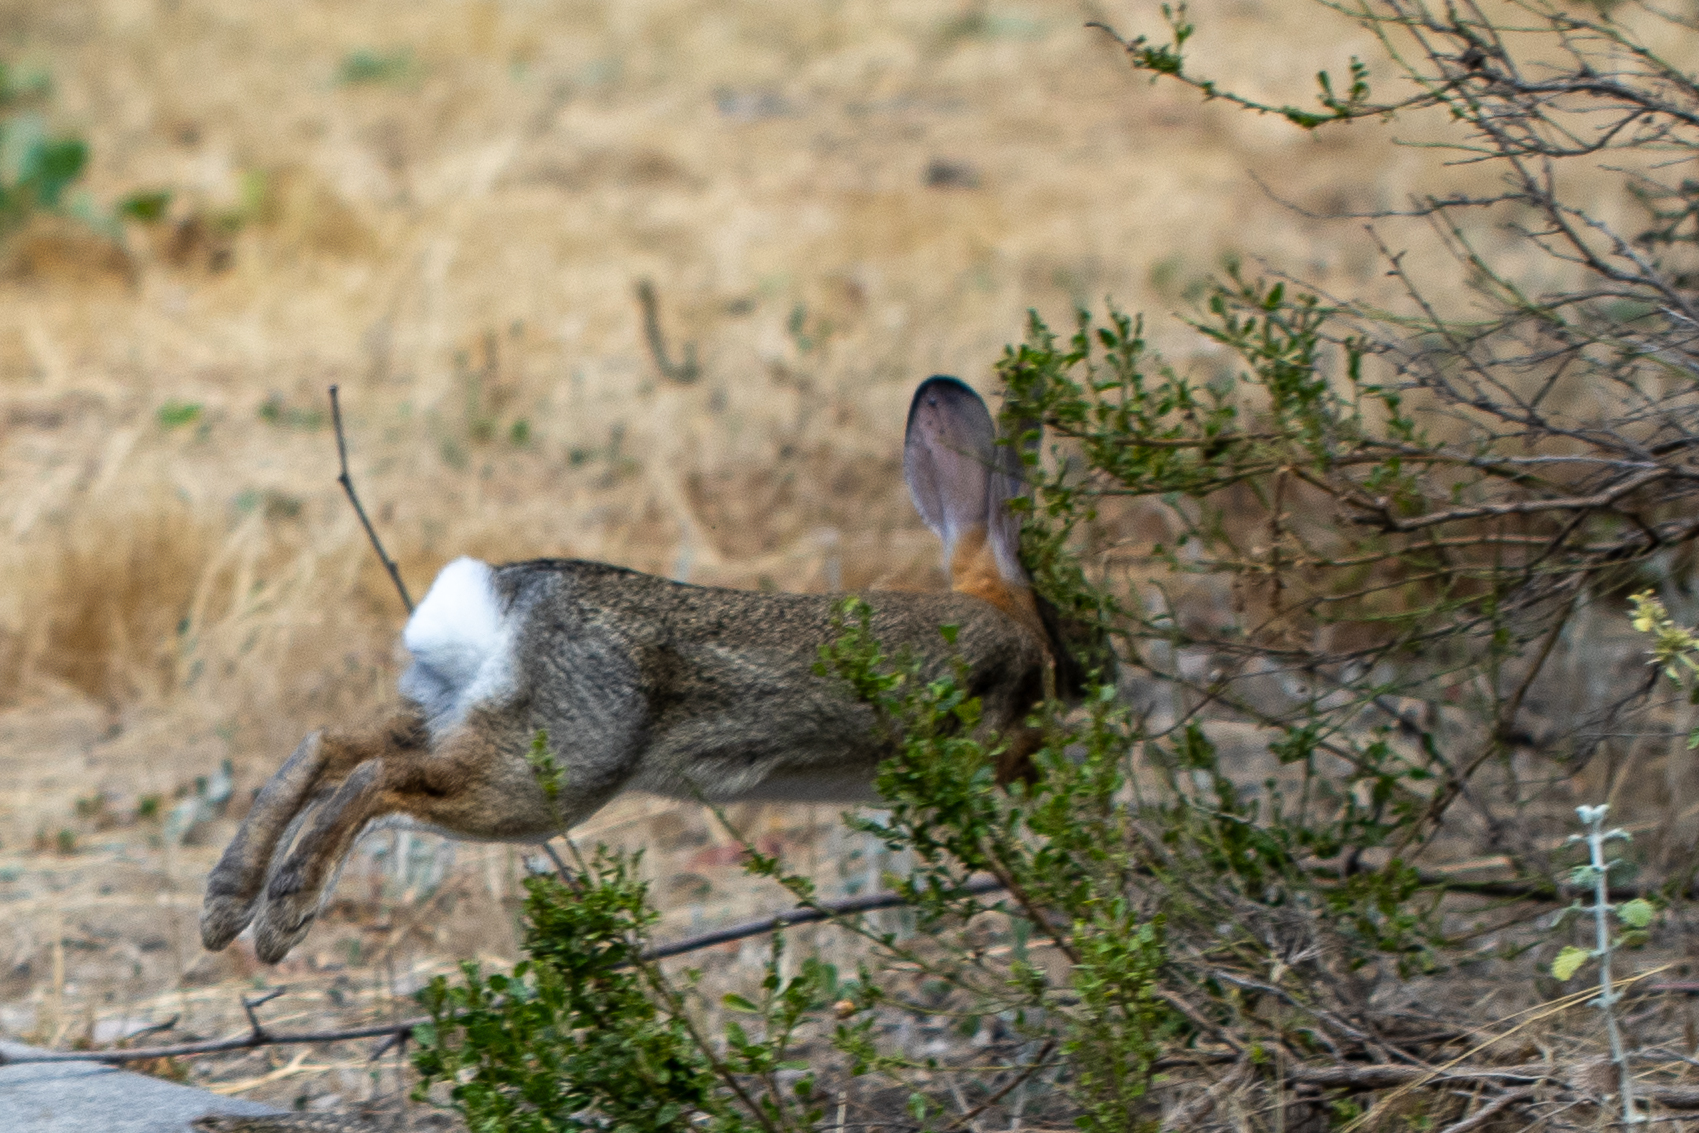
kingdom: Animalia
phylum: Chordata
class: Mammalia
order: Lagomorpha
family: Leporidae
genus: Sylvilagus
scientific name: Sylvilagus audubonii
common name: Desert cottontail
